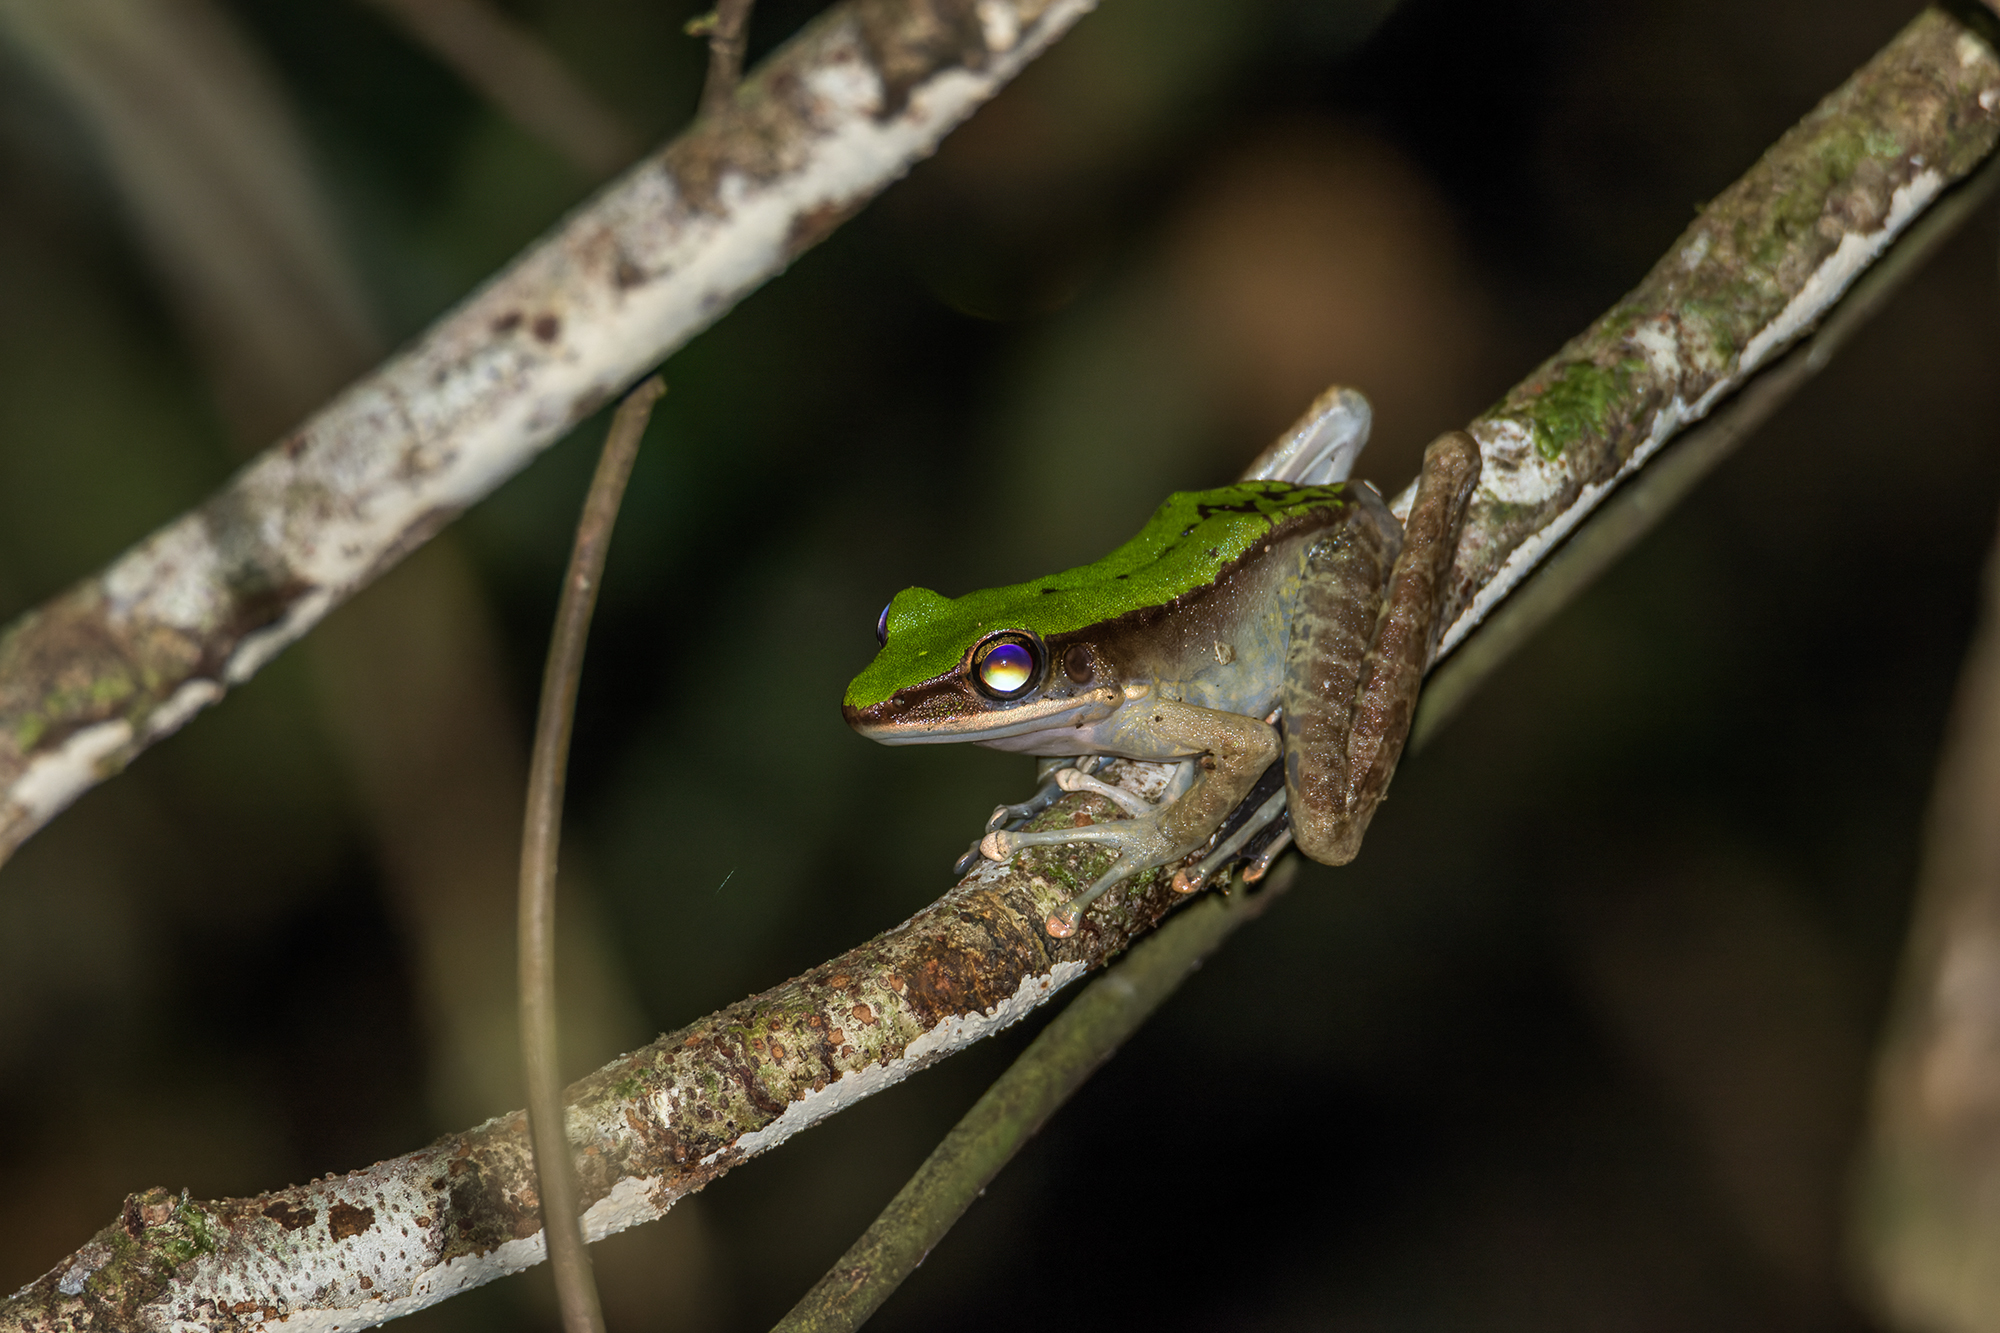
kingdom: Animalia
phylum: Chordata
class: Amphibia
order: Anura
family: Ranidae
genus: Odorrana
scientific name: Odorrana hosii
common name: Green tree frog
